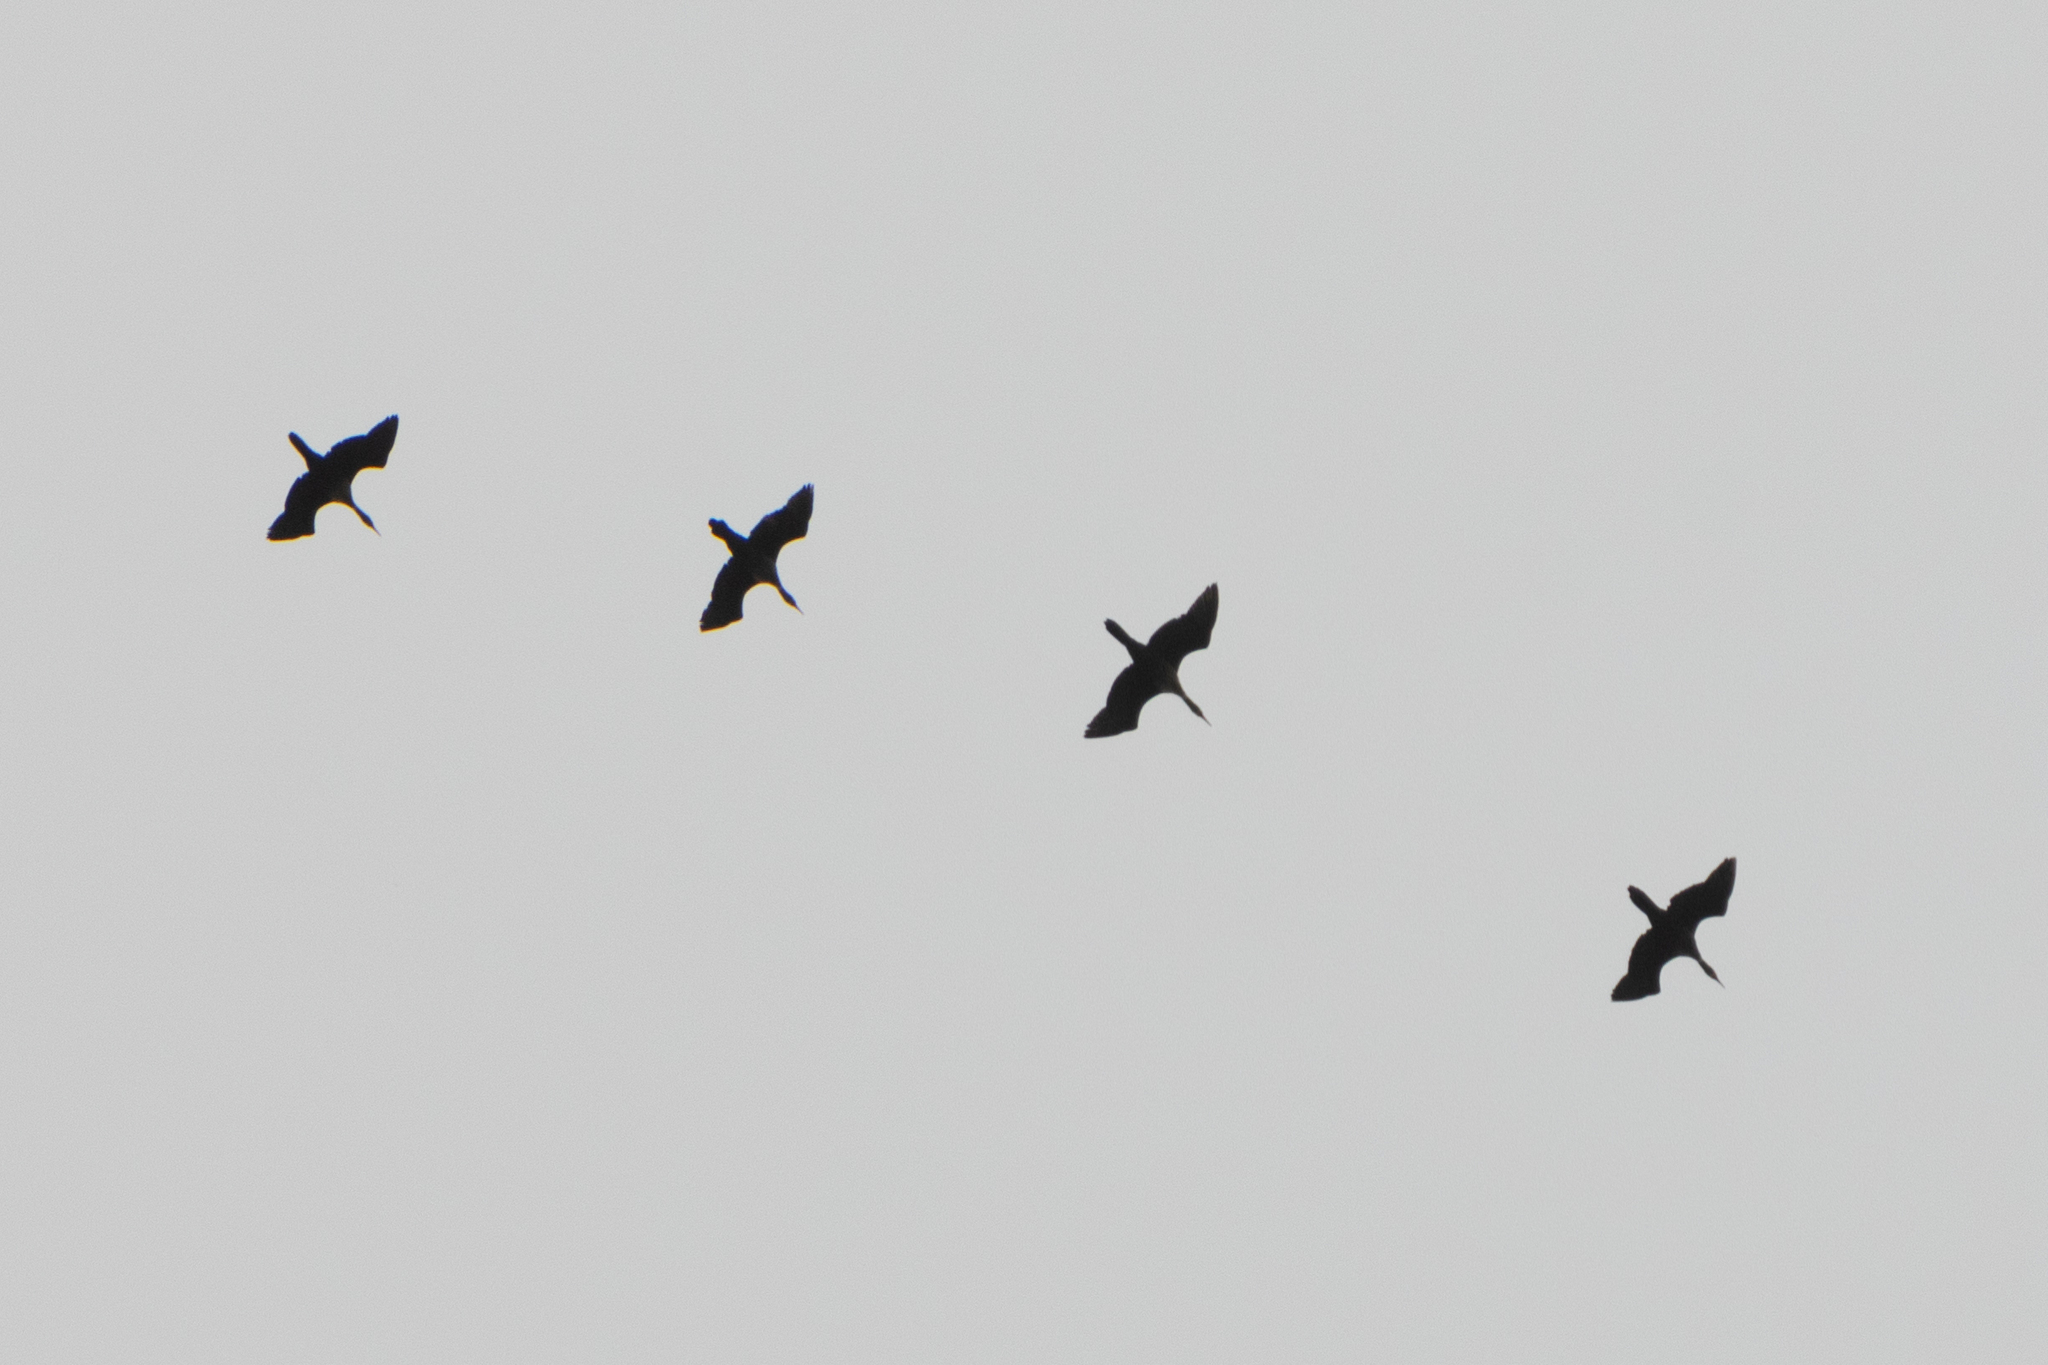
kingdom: Animalia
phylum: Chordata
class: Aves
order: Suliformes
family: Phalacrocoracidae
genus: Phalacrocorax
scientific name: Phalacrocorax auritus
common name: Double-crested cormorant
